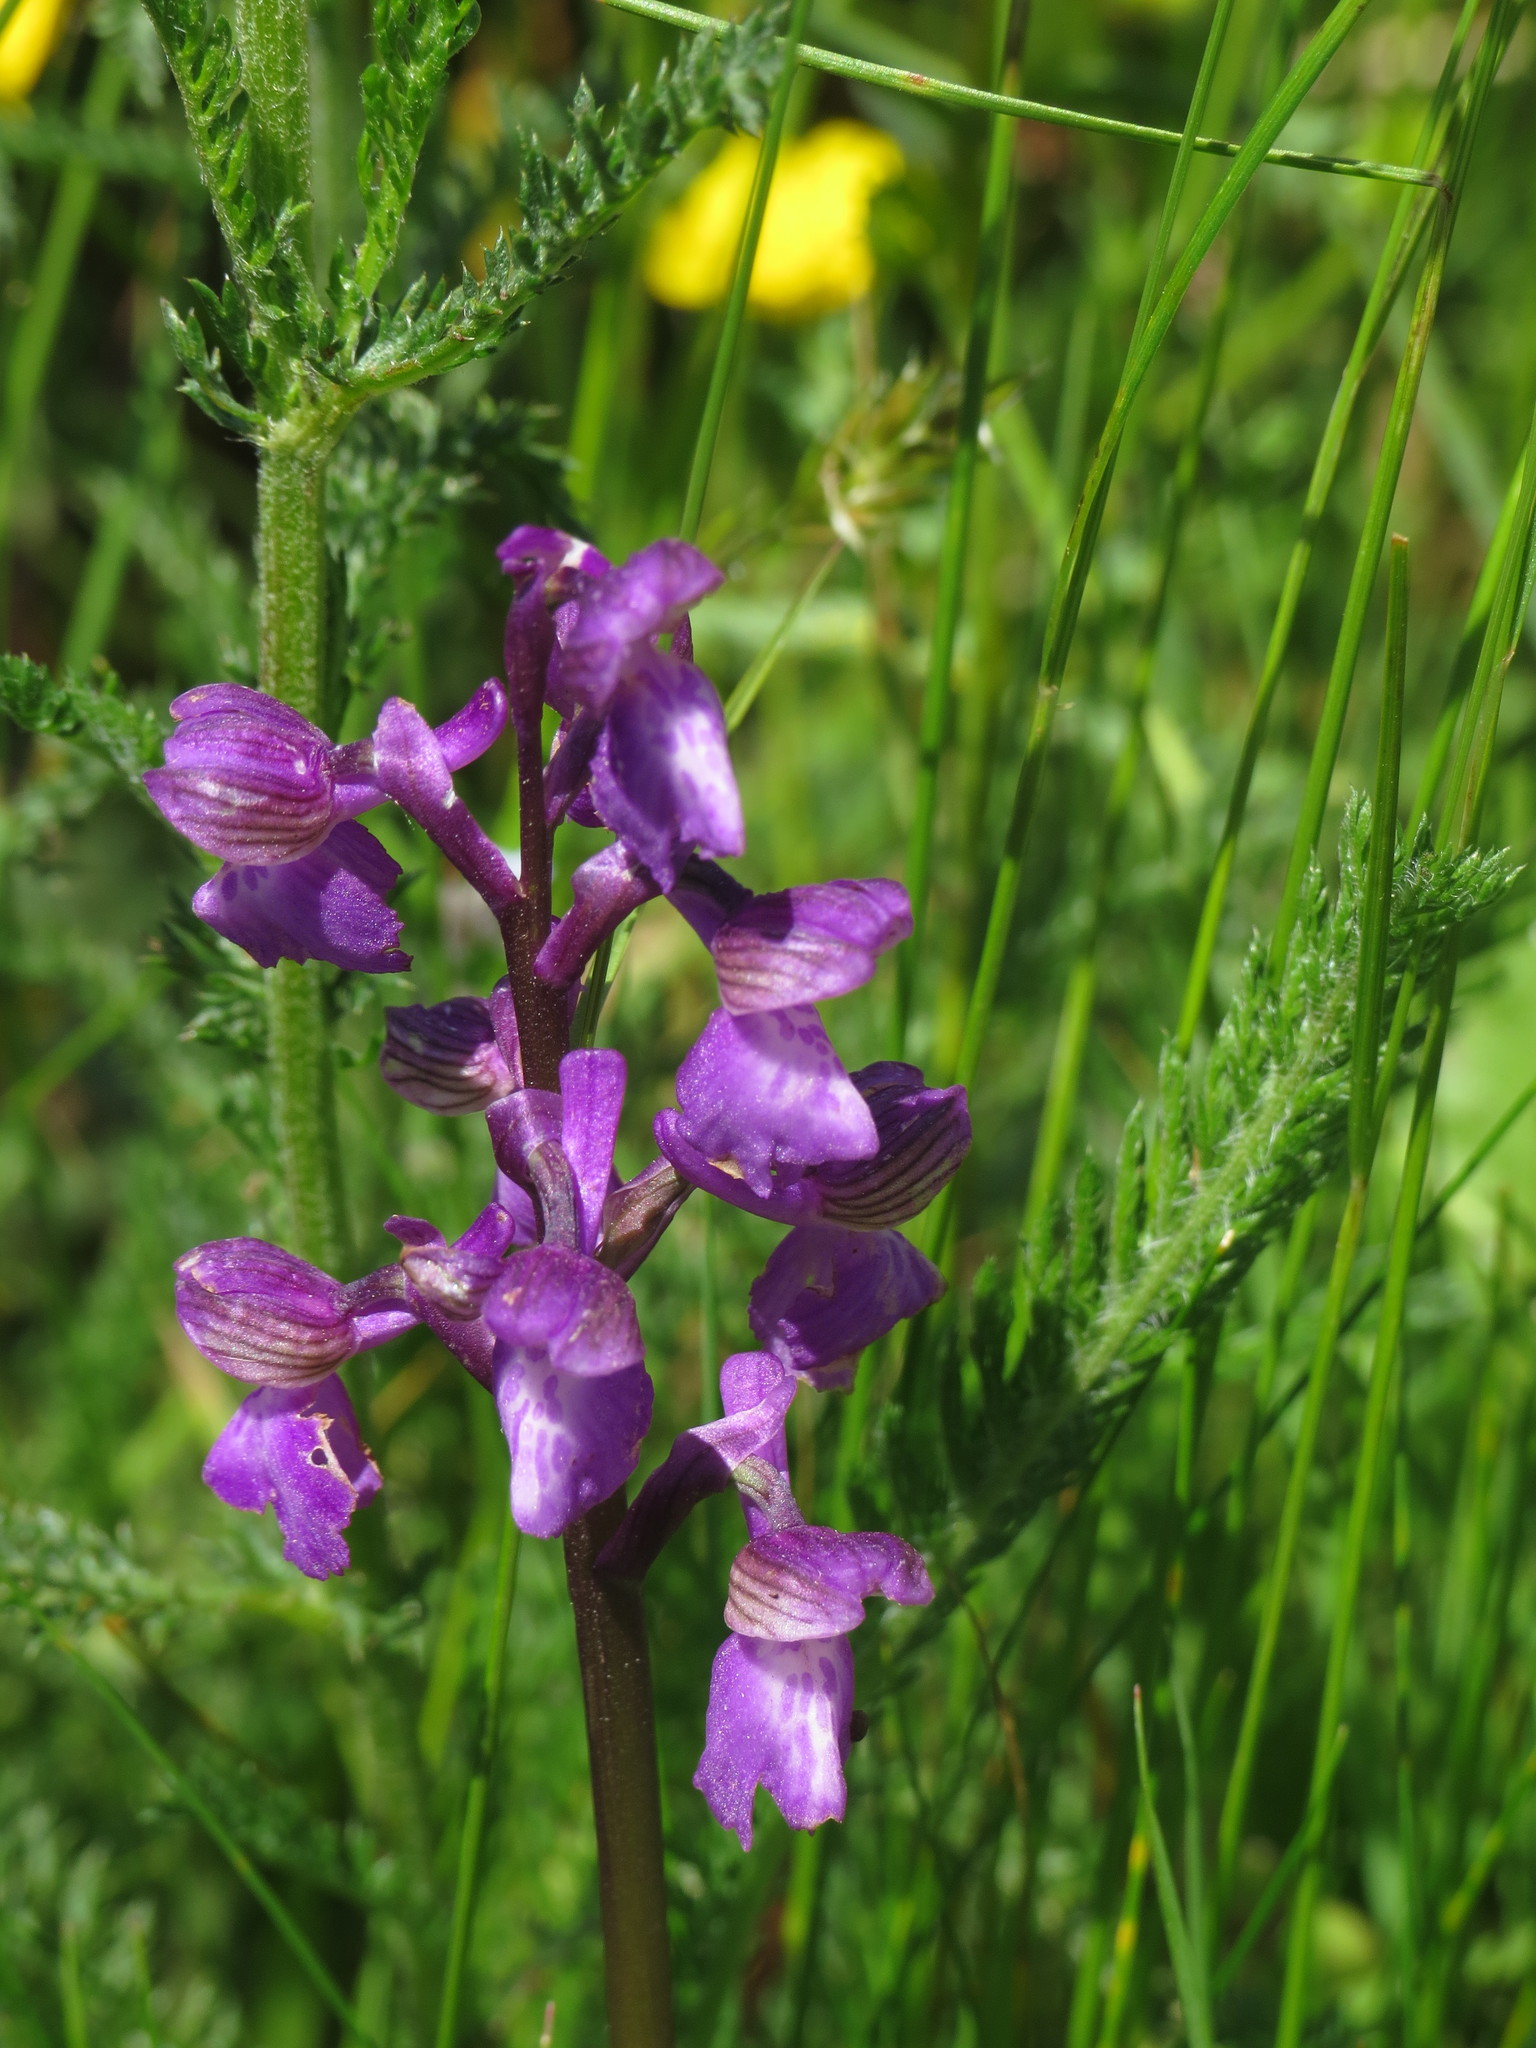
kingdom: Plantae
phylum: Tracheophyta
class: Liliopsida
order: Asparagales
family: Orchidaceae
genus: Anacamptis
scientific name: Anacamptis morio
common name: Green-winged orchid
